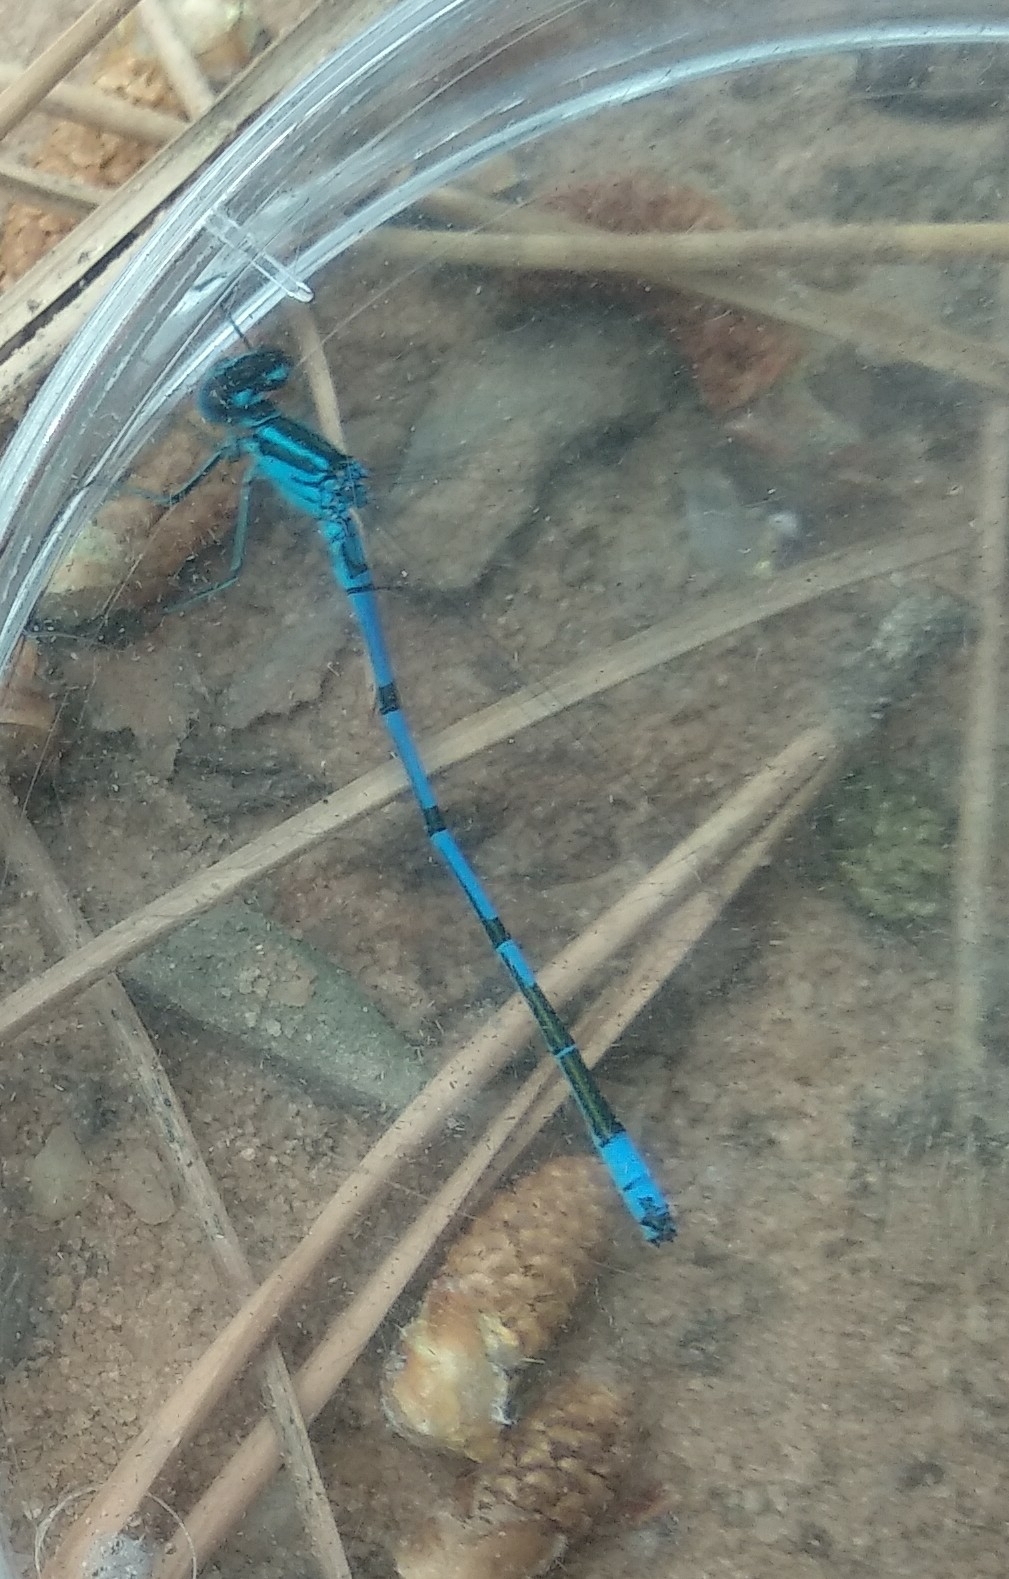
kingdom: Animalia
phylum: Arthropoda
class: Insecta
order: Odonata
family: Coenagrionidae
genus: Coenagrion
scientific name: Coenagrion puella
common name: Azure damselfly
